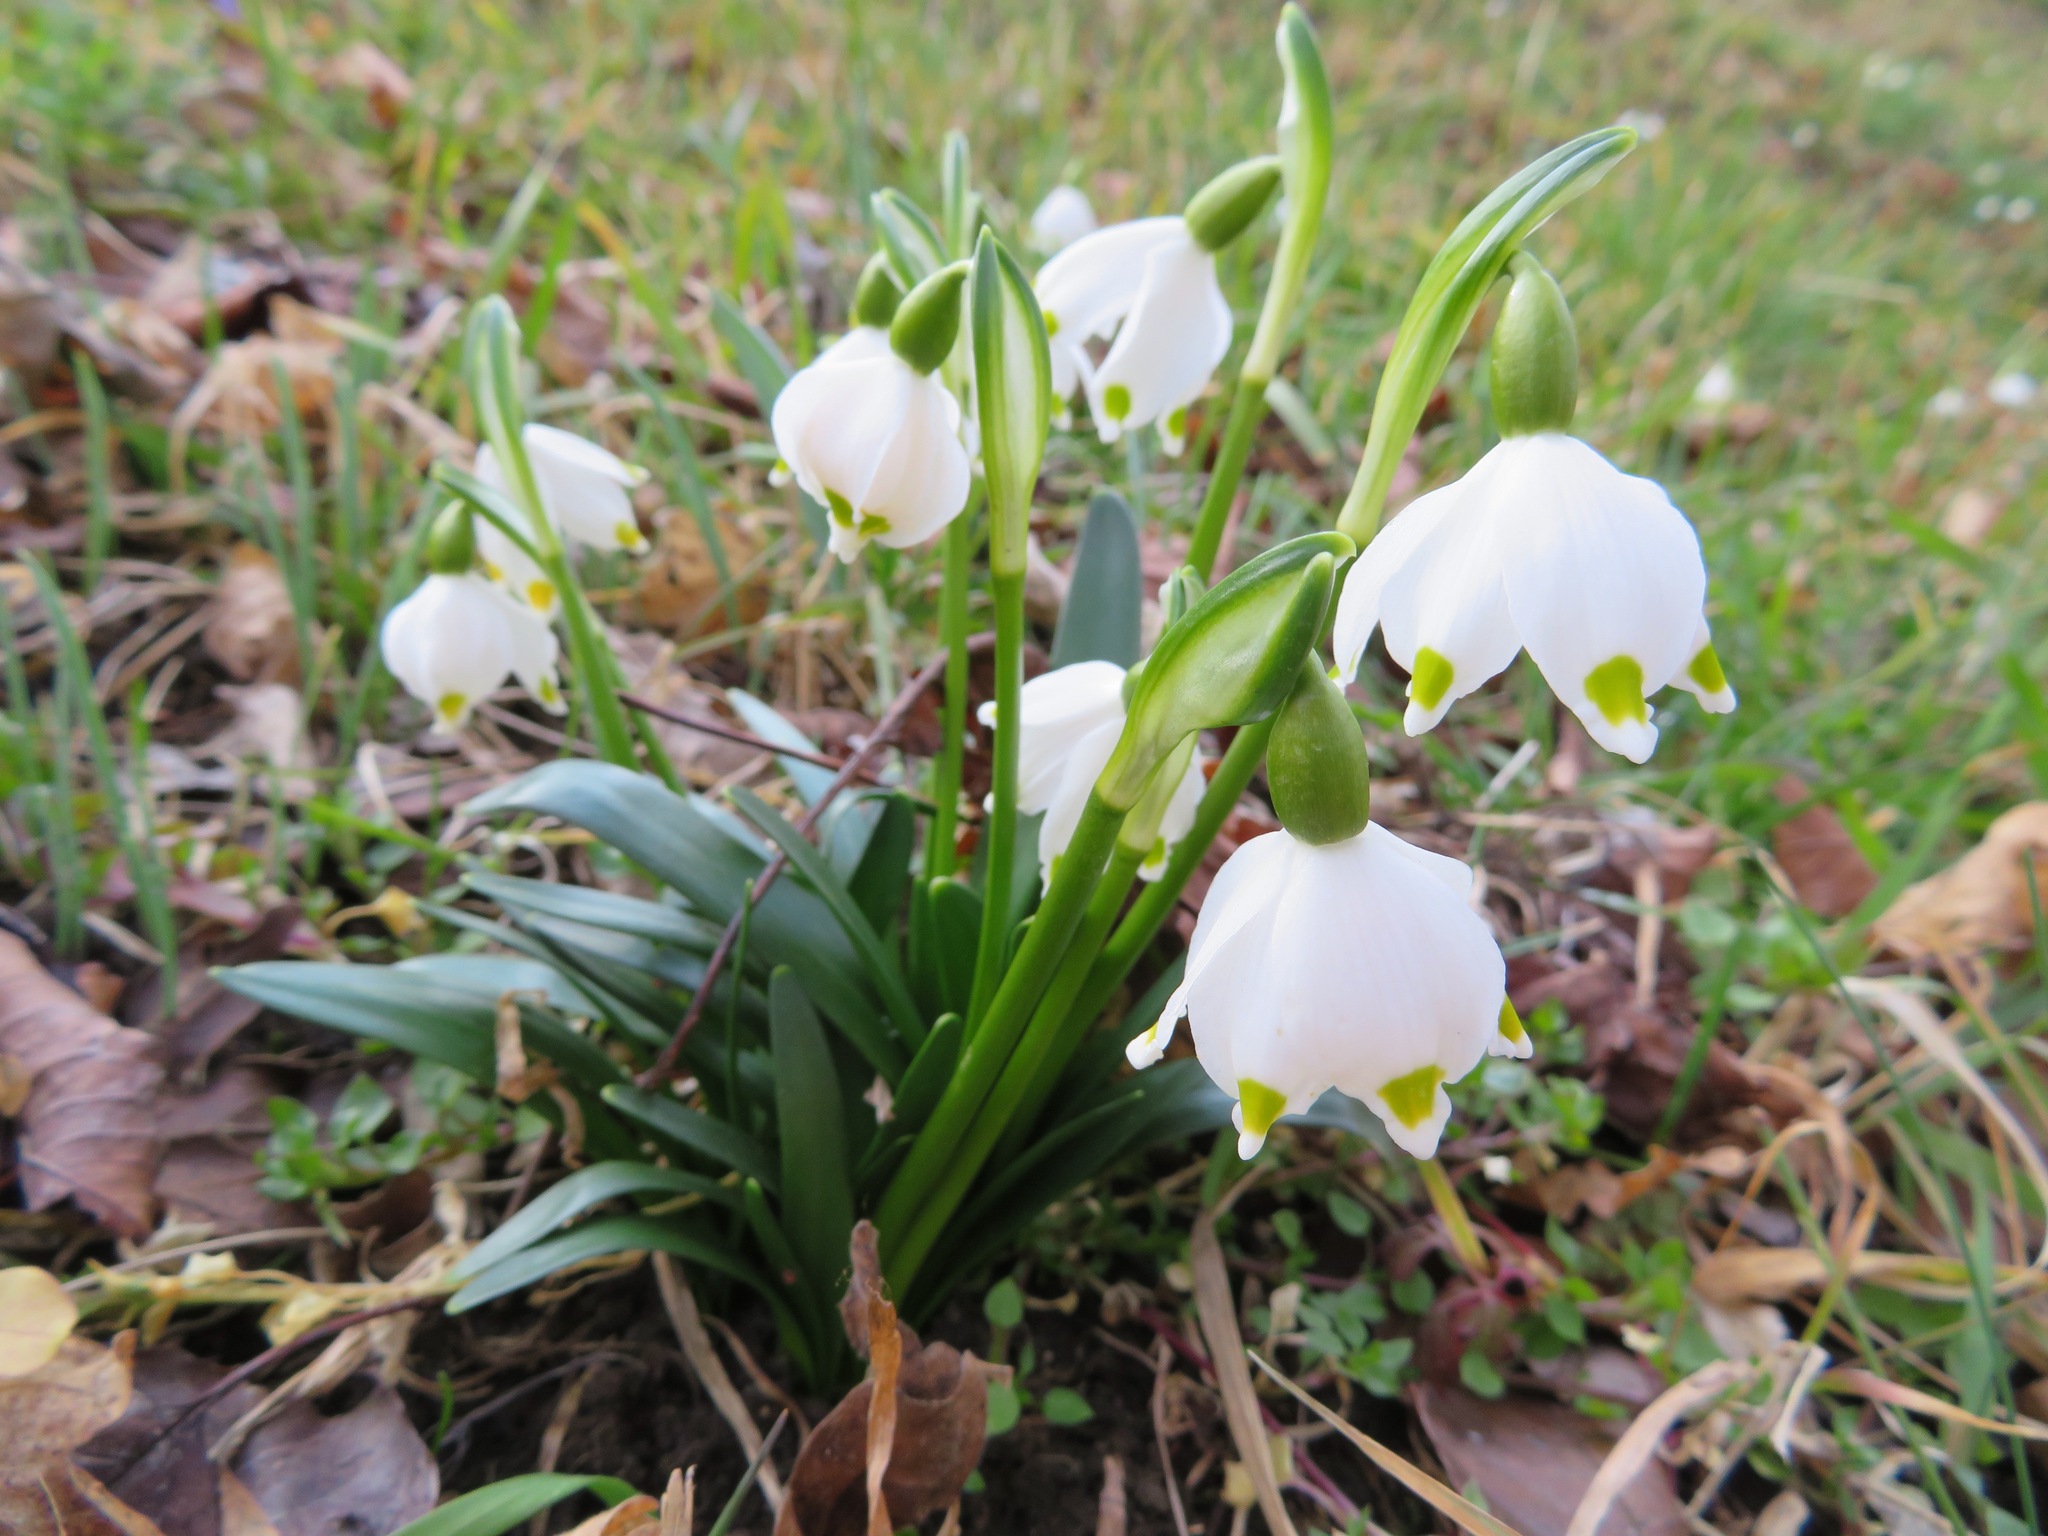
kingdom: Plantae
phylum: Tracheophyta
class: Liliopsida
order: Asparagales
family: Amaryllidaceae
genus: Leucojum
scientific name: Leucojum vernum
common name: Spring snowflake
